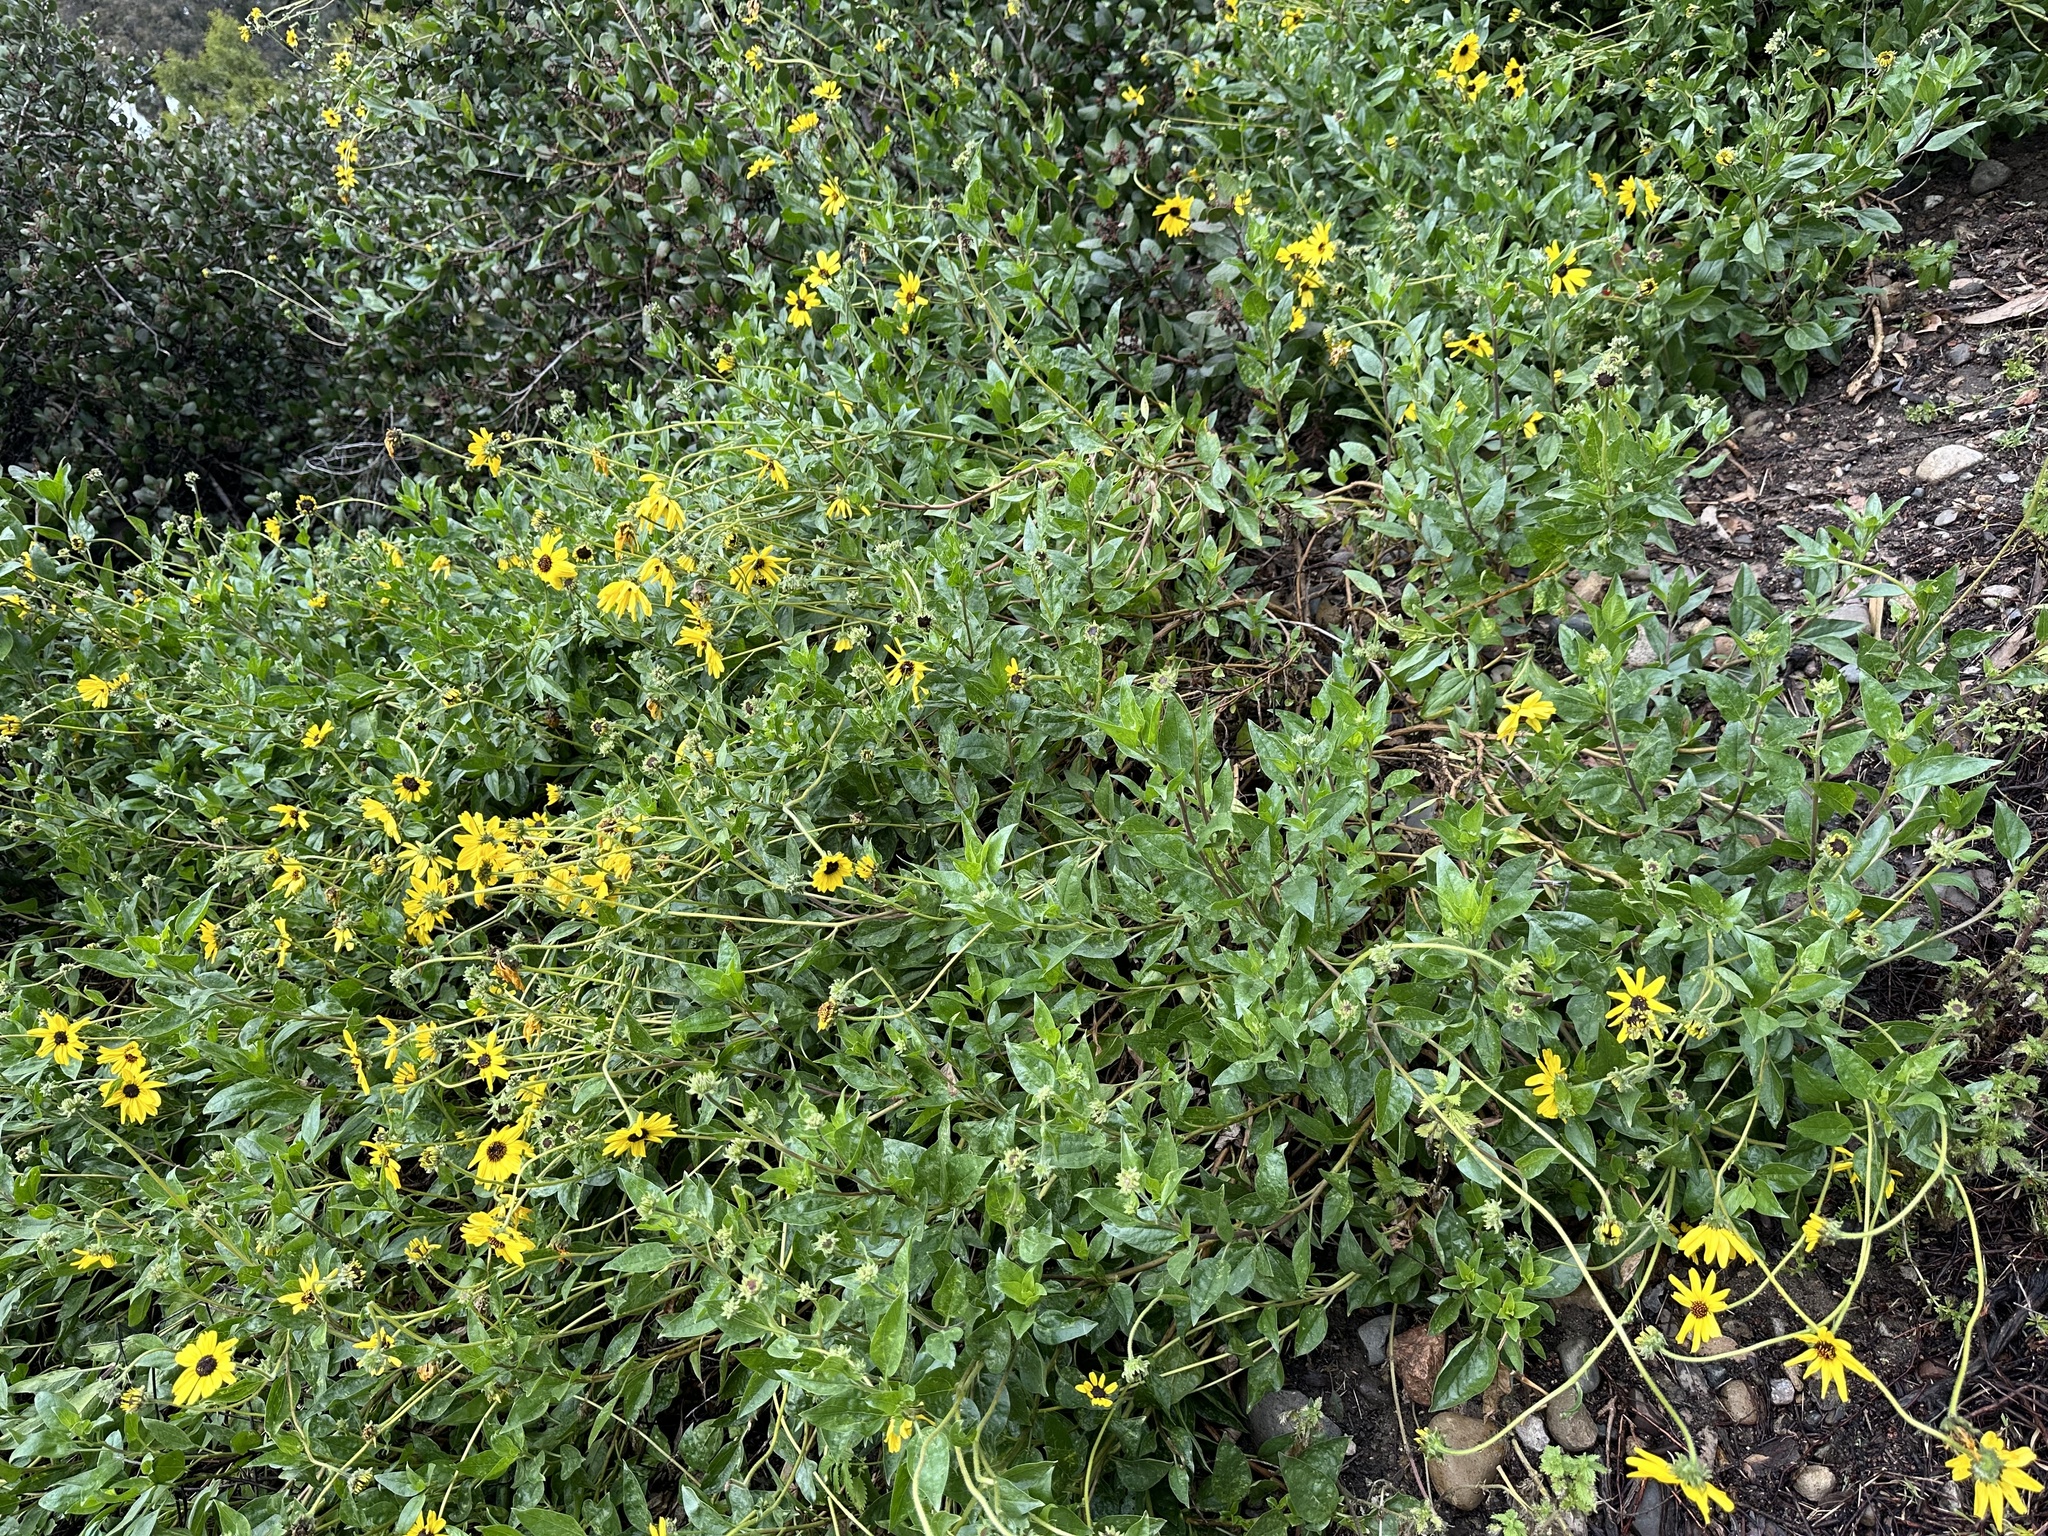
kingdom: Plantae
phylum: Tracheophyta
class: Magnoliopsida
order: Asterales
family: Asteraceae
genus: Encelia
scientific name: Encelia californica
